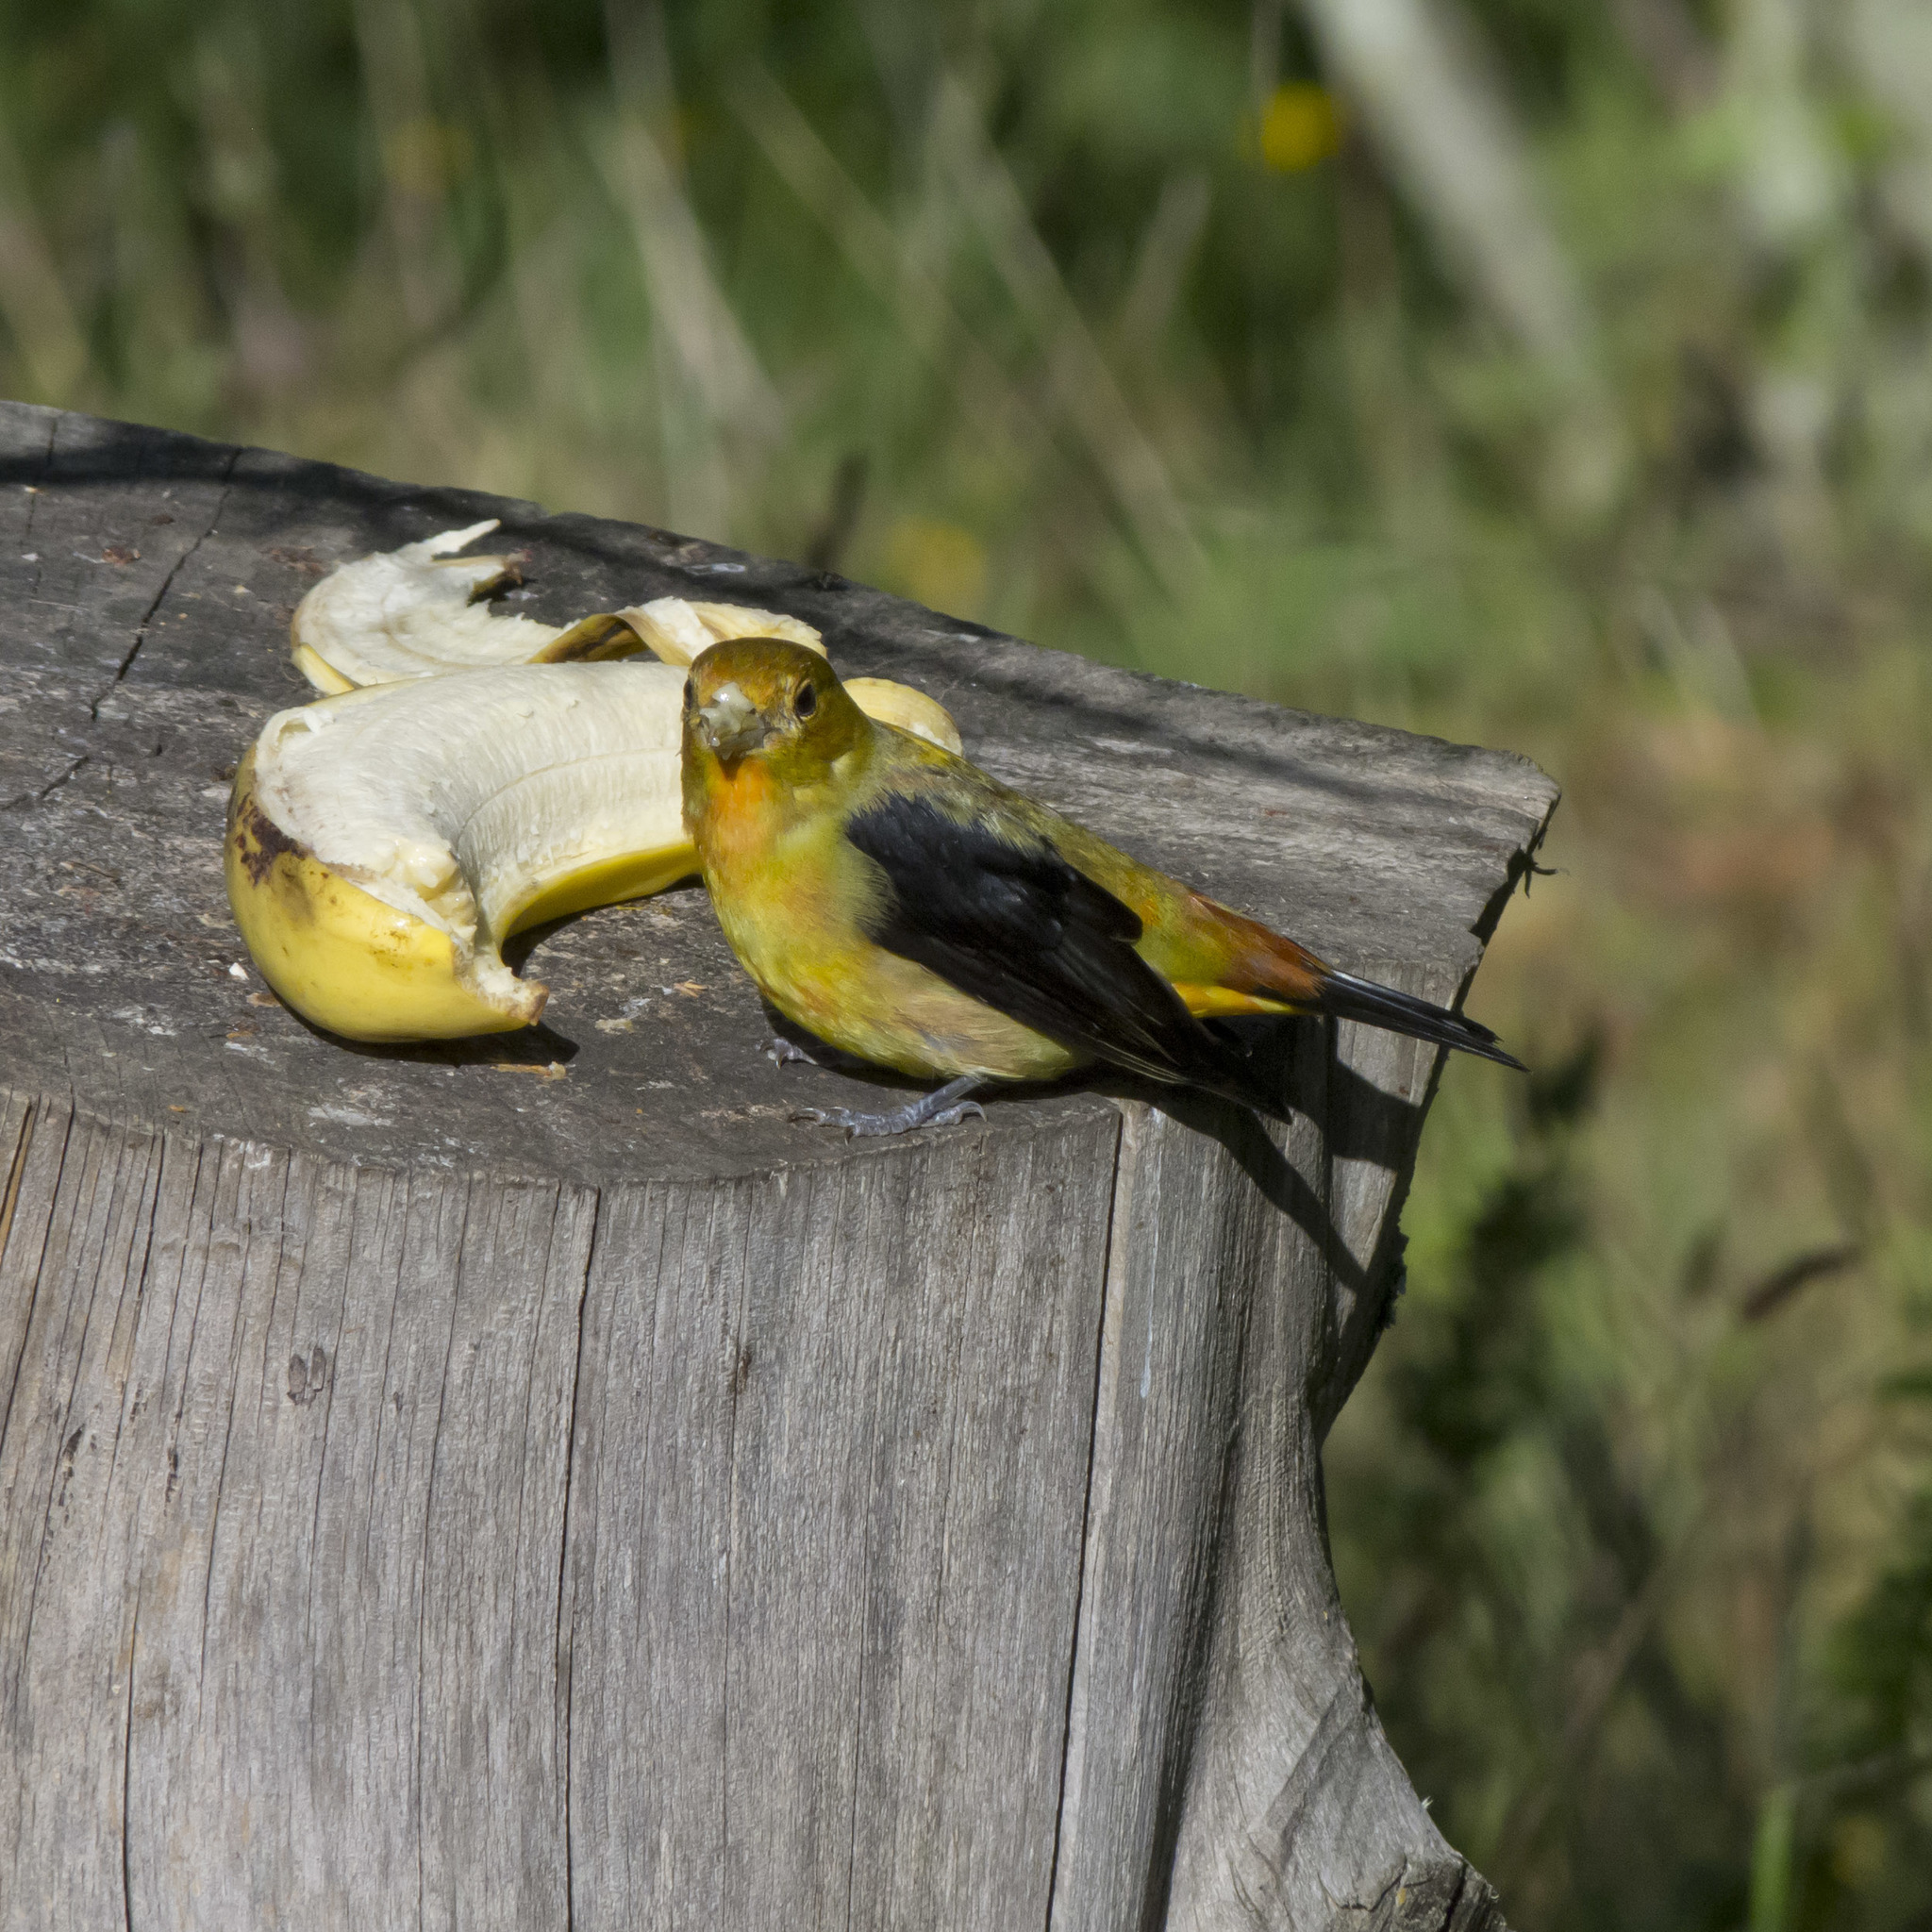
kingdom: Animalia
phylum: Chordata
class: Aves
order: Passeriformes
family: Cardinalidae
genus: Piranga
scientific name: Piranga olivacea
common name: Scarlet tanager
